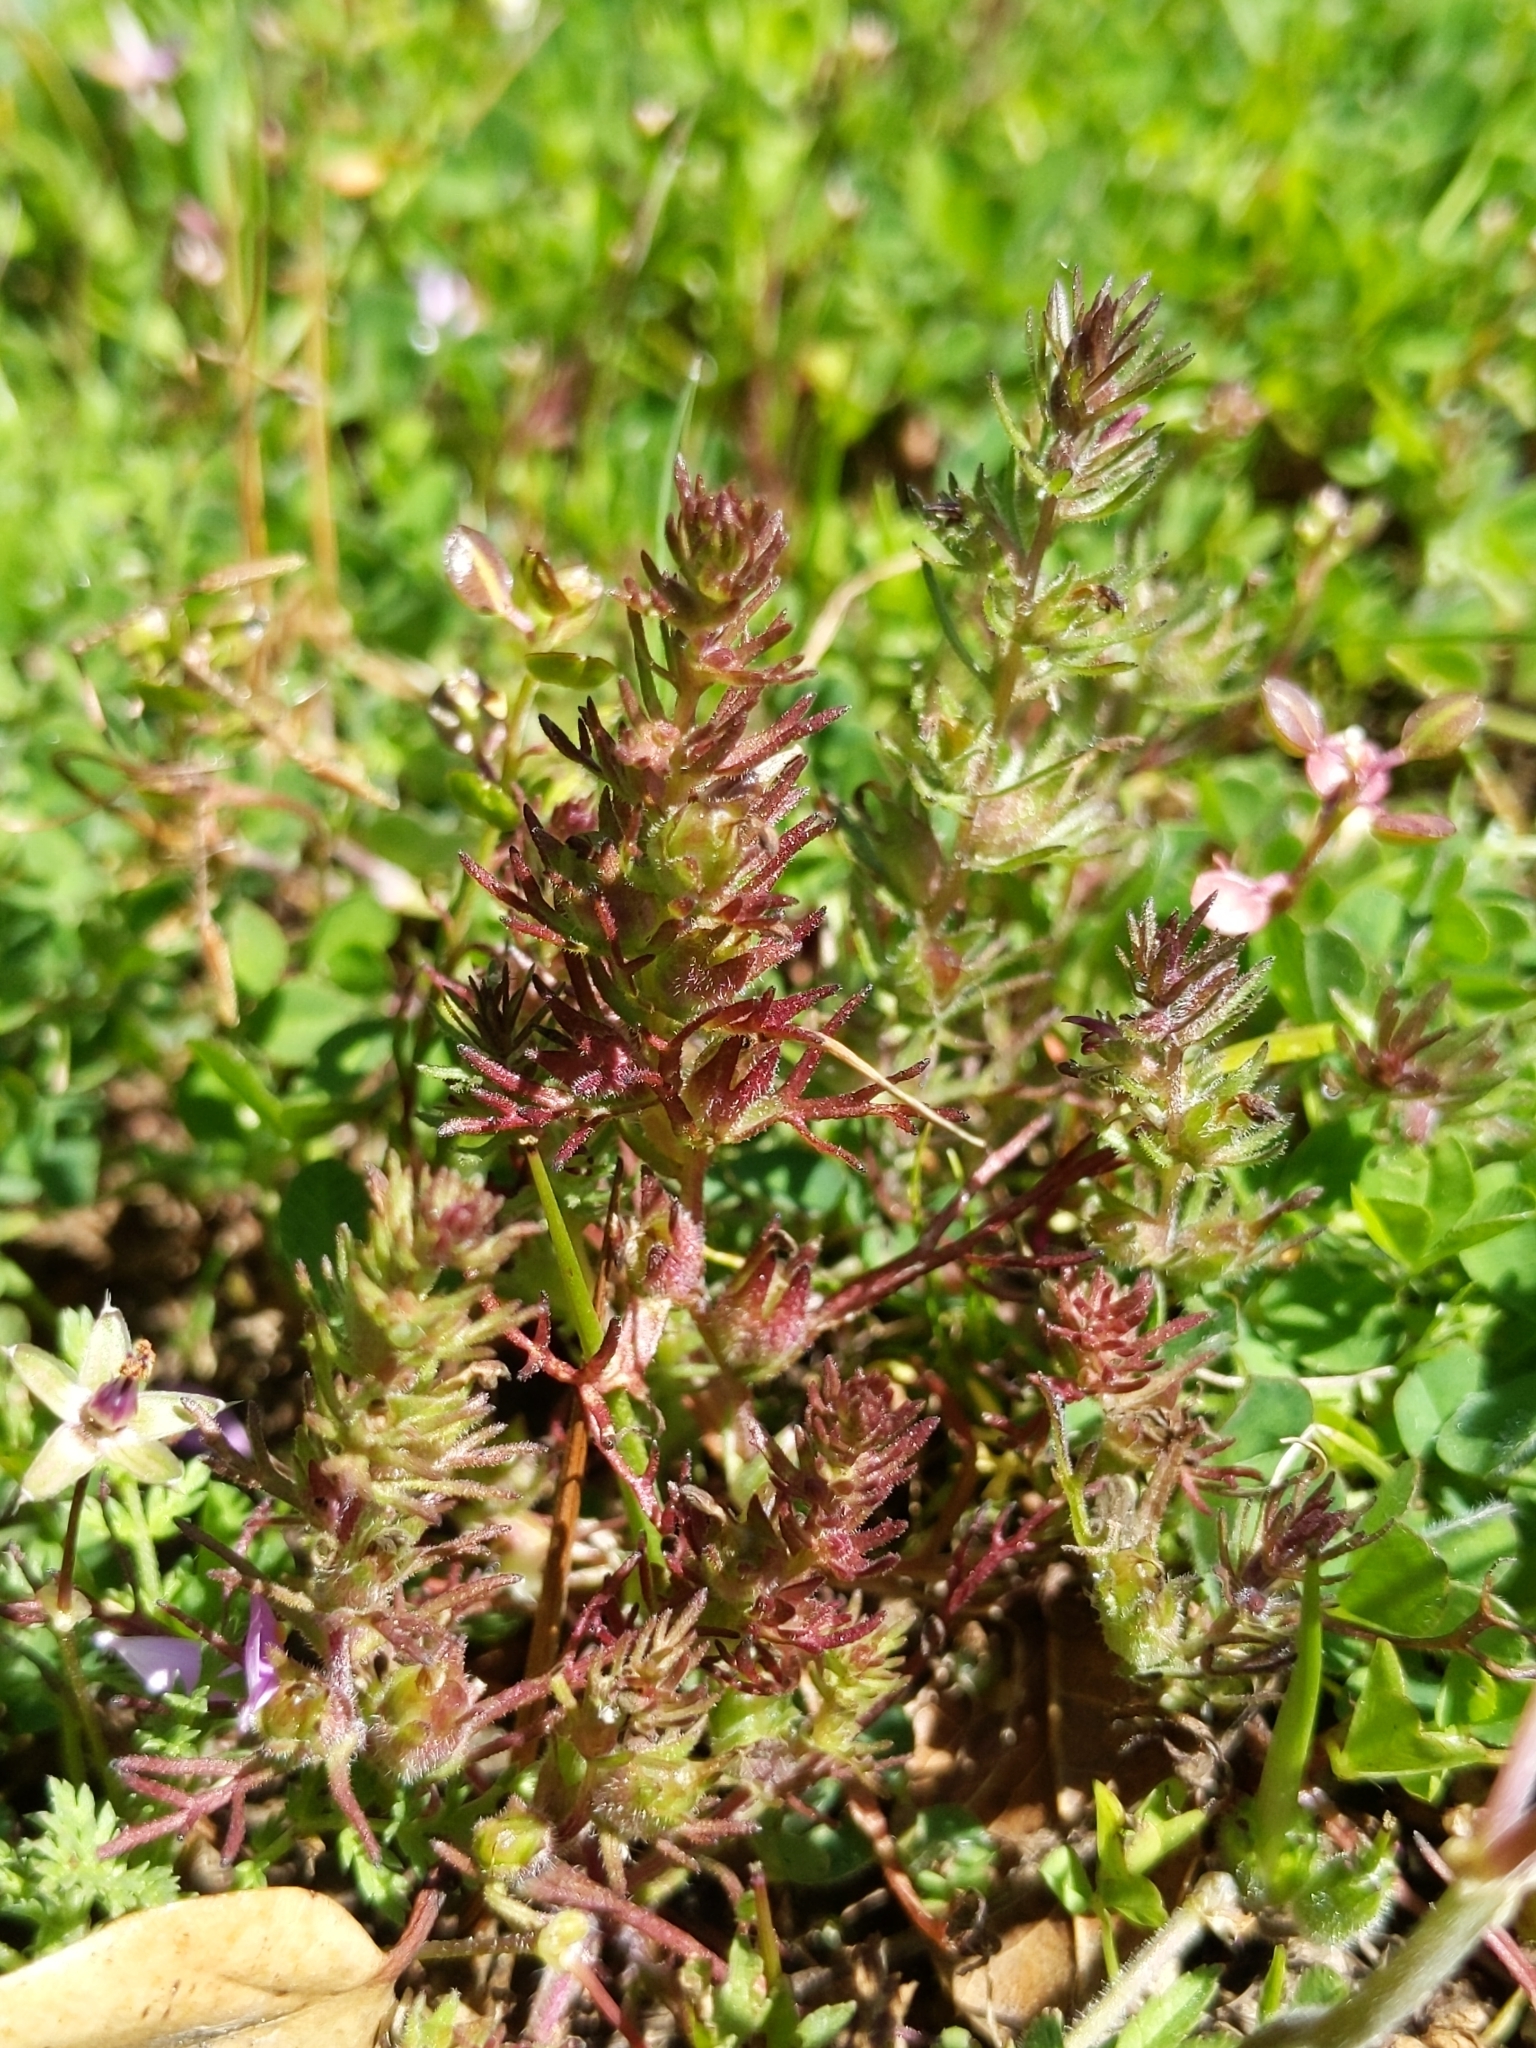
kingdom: Plantae
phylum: Tracheophyta
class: Magnoliopsida
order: Lamiales
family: Orobanchaceae
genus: Triphysaria
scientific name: Triphysaria pusilla
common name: Dwarf false owl-clover
